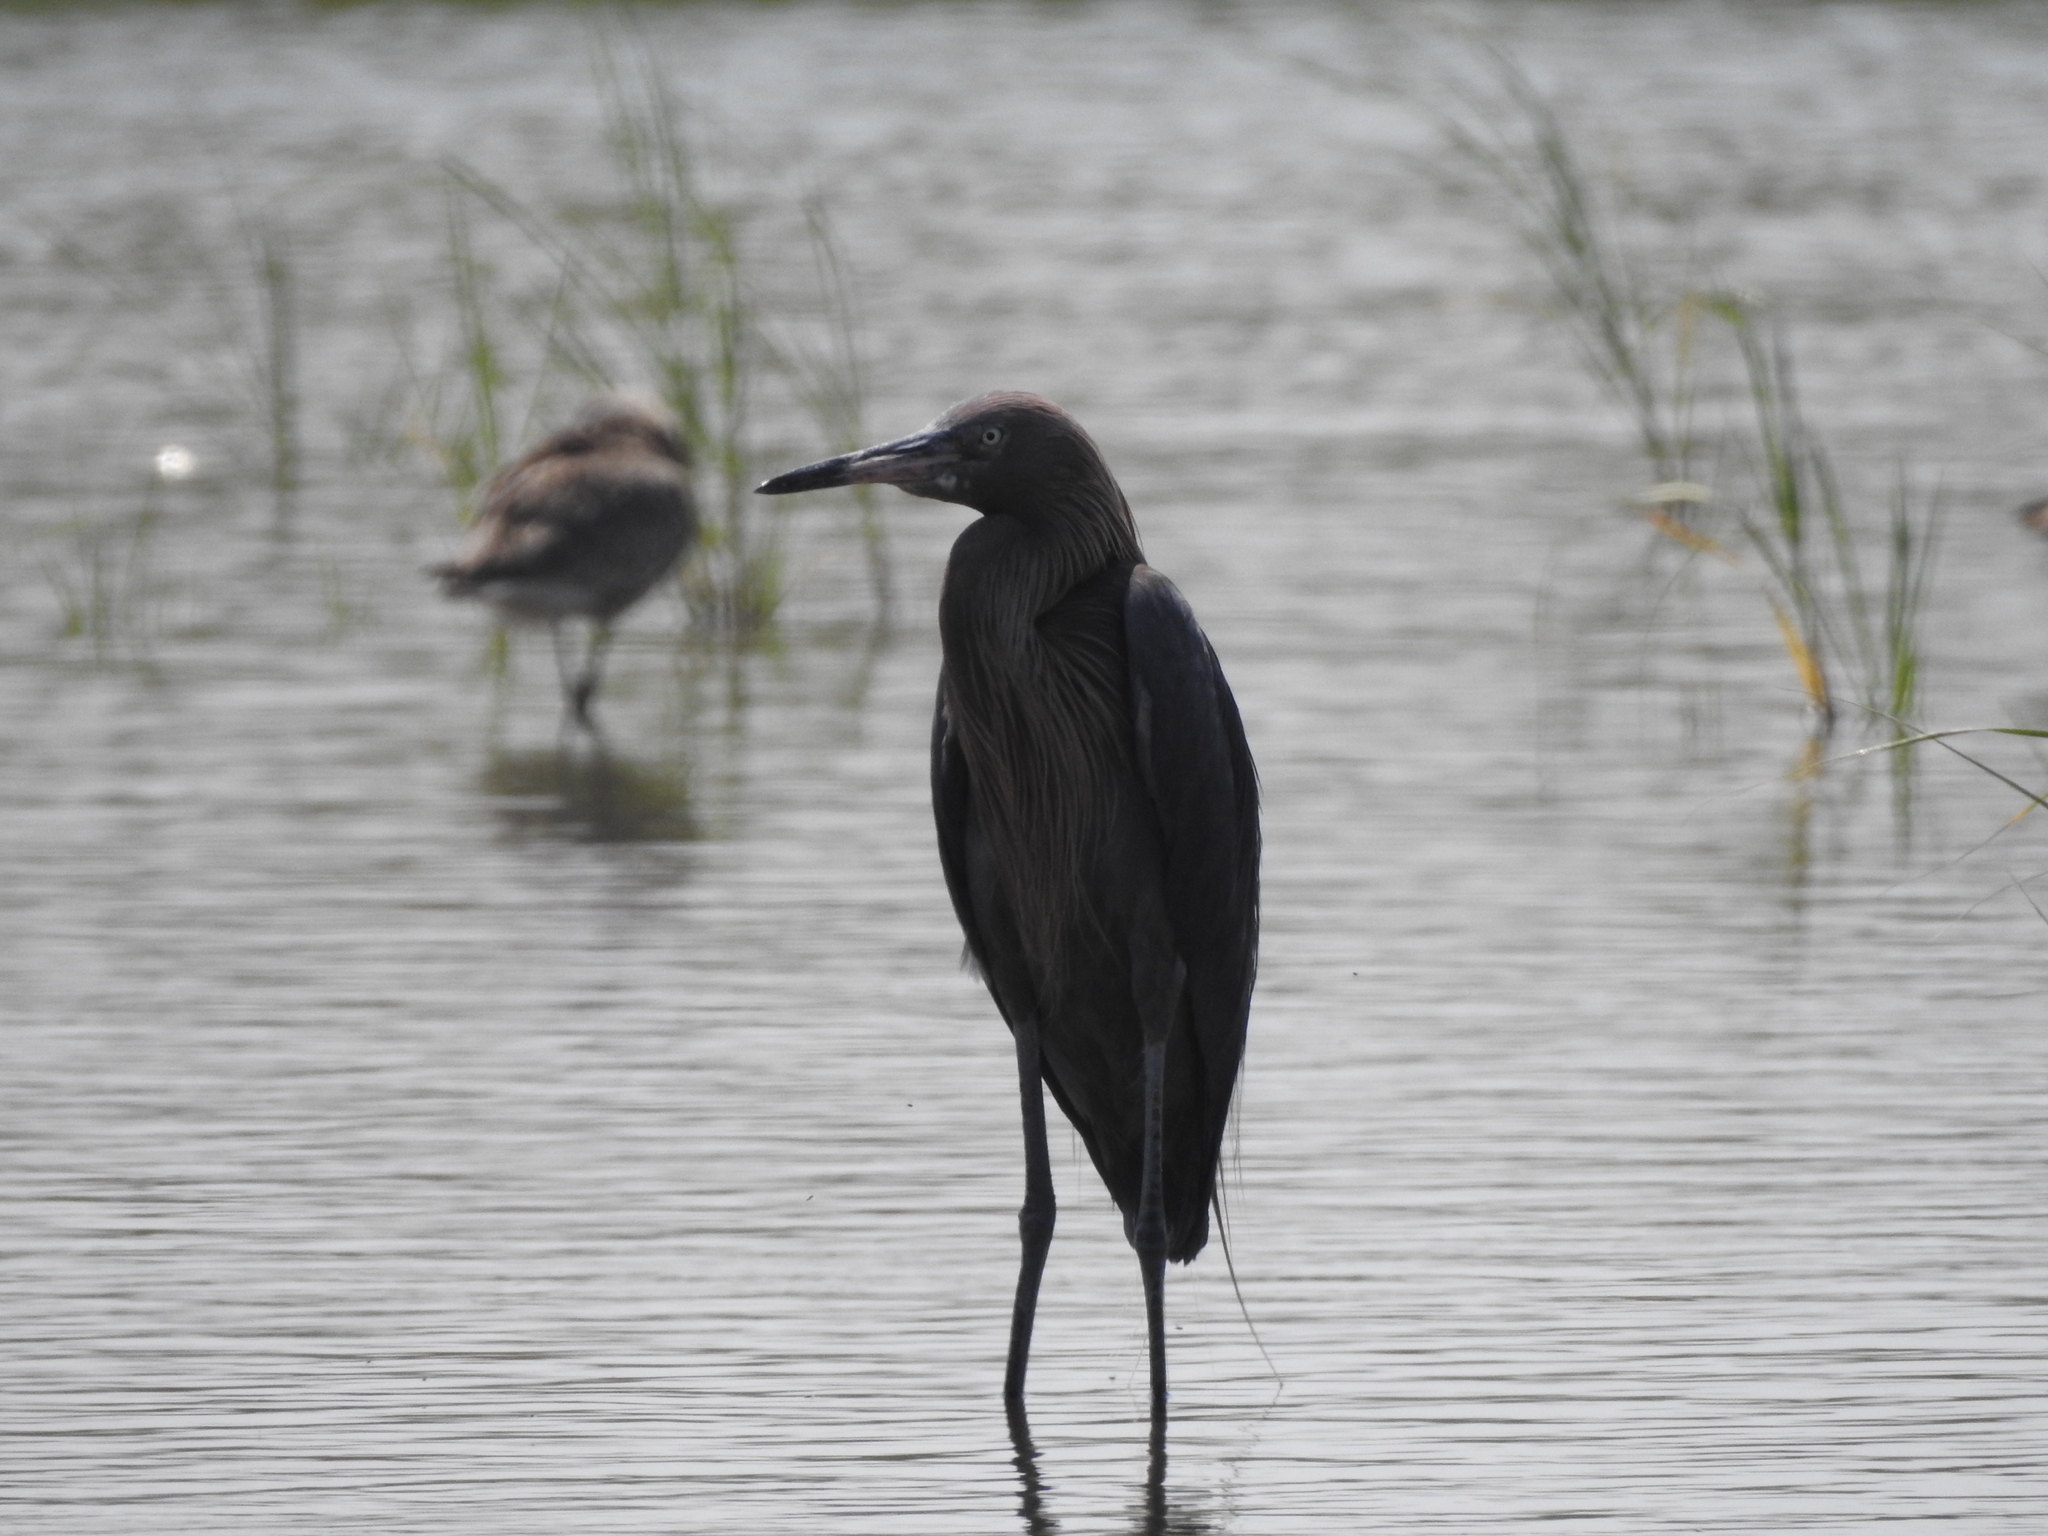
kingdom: Animalia
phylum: Chordata
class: Aves
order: Pelecaniformes
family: Ardeidae
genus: Egretta
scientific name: Egretta rufescens
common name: Reddish egret
